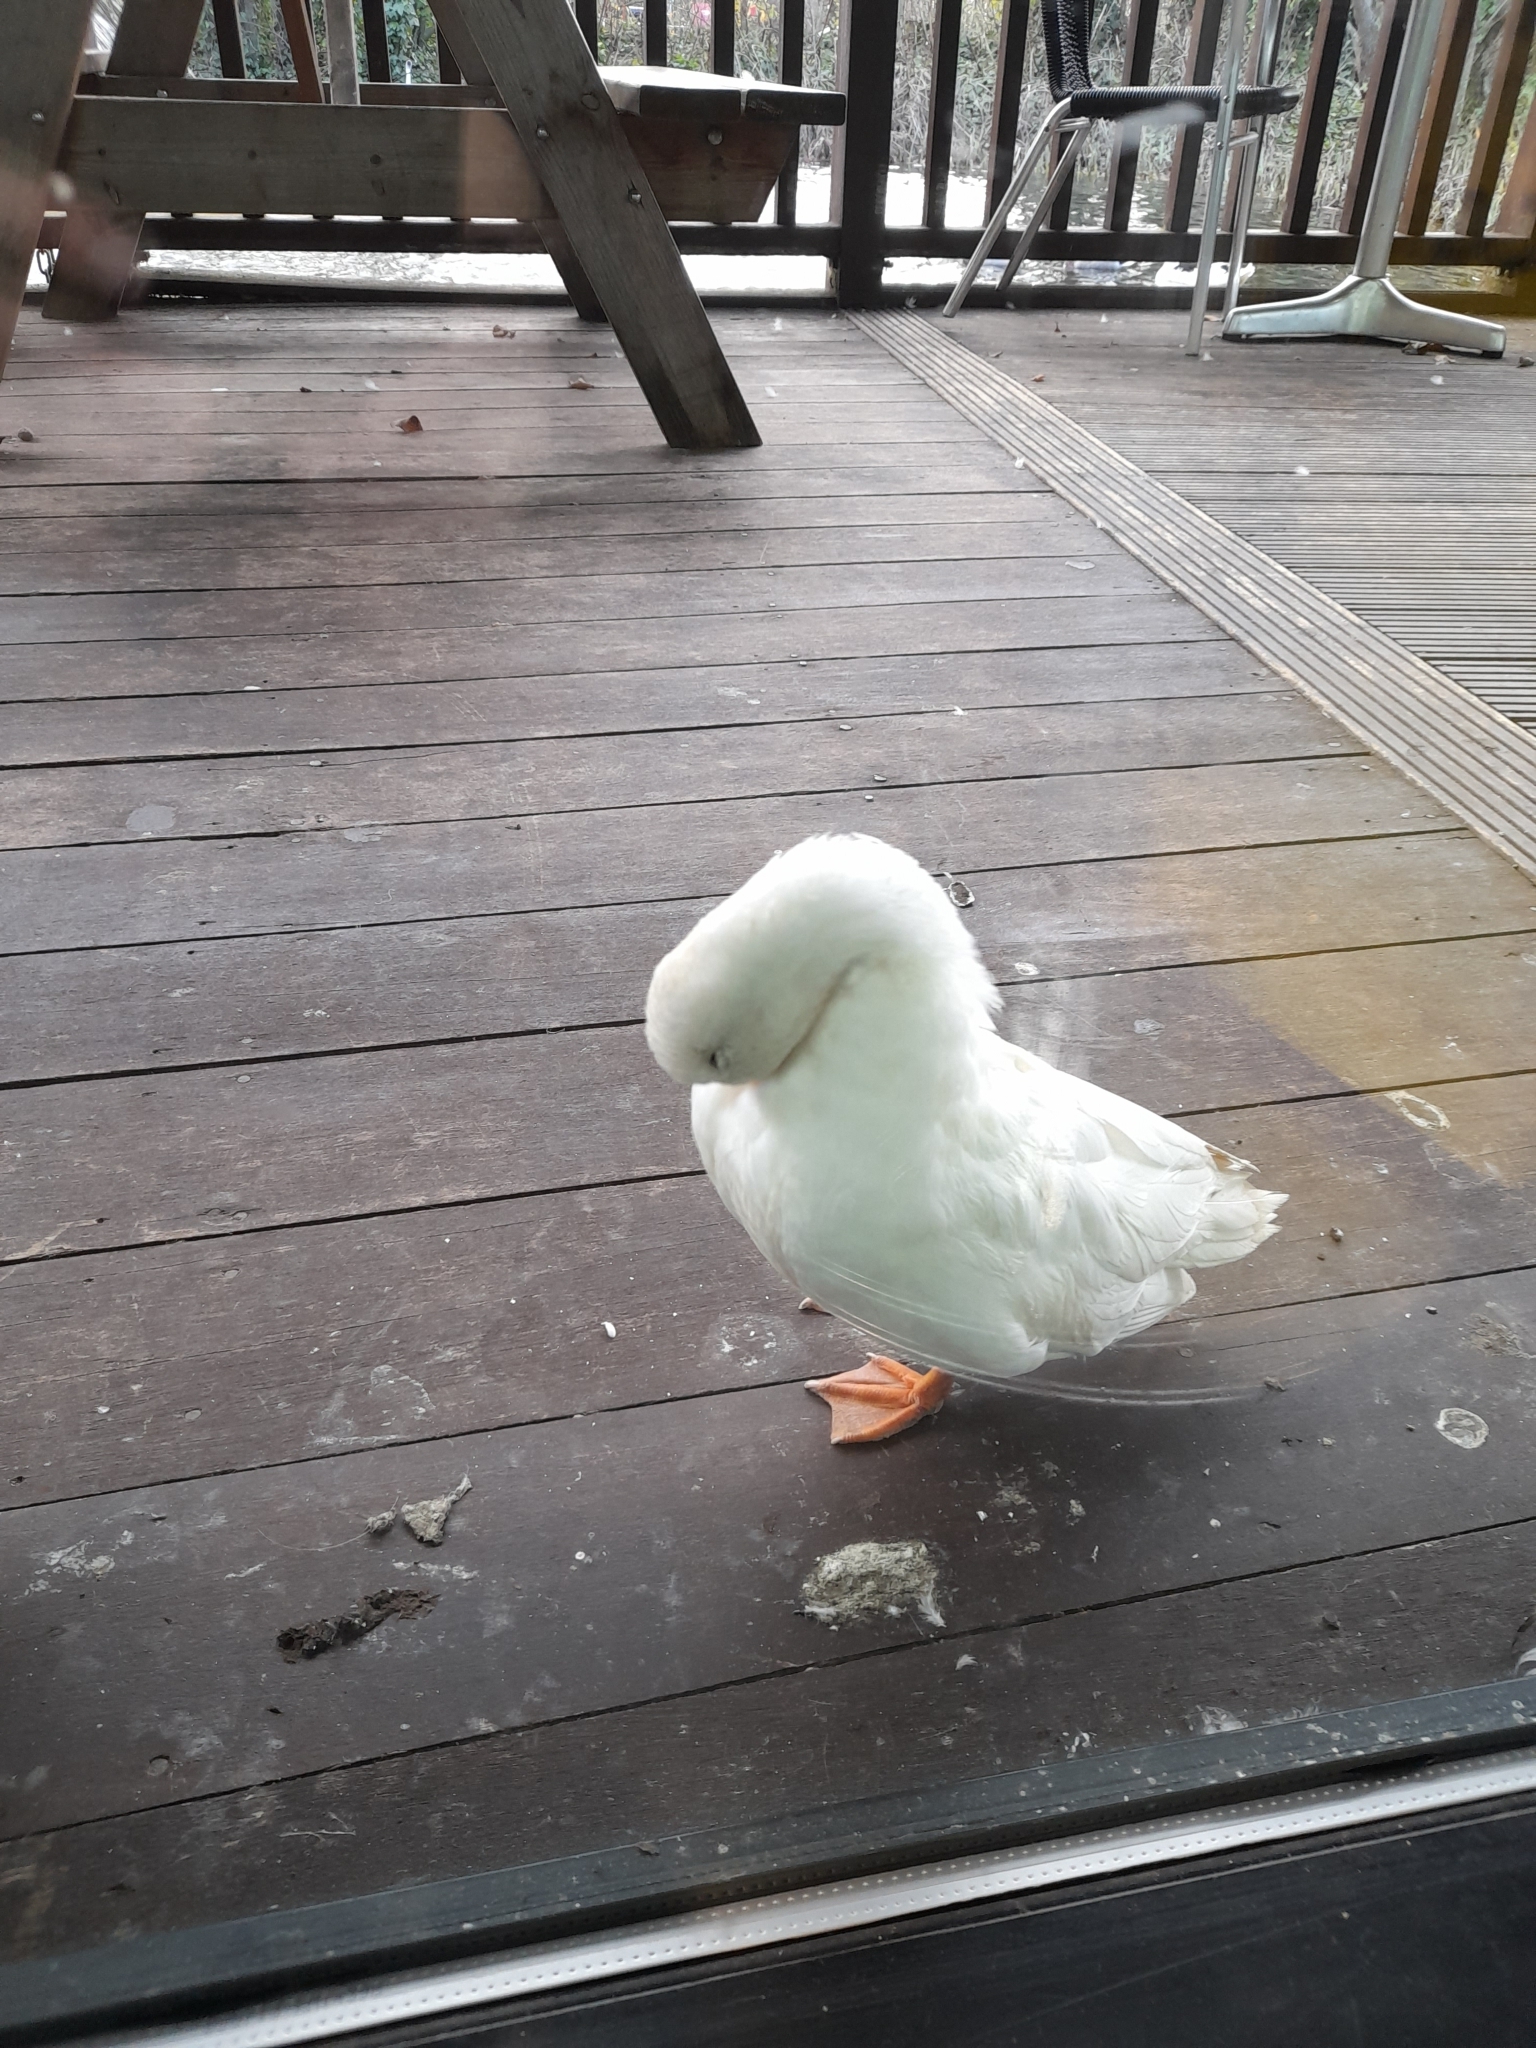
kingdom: Animalia
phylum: Chordata
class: Aves
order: Anseriformes
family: Anatidae
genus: Anas
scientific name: Anas platyrhynchos
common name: Mallard
